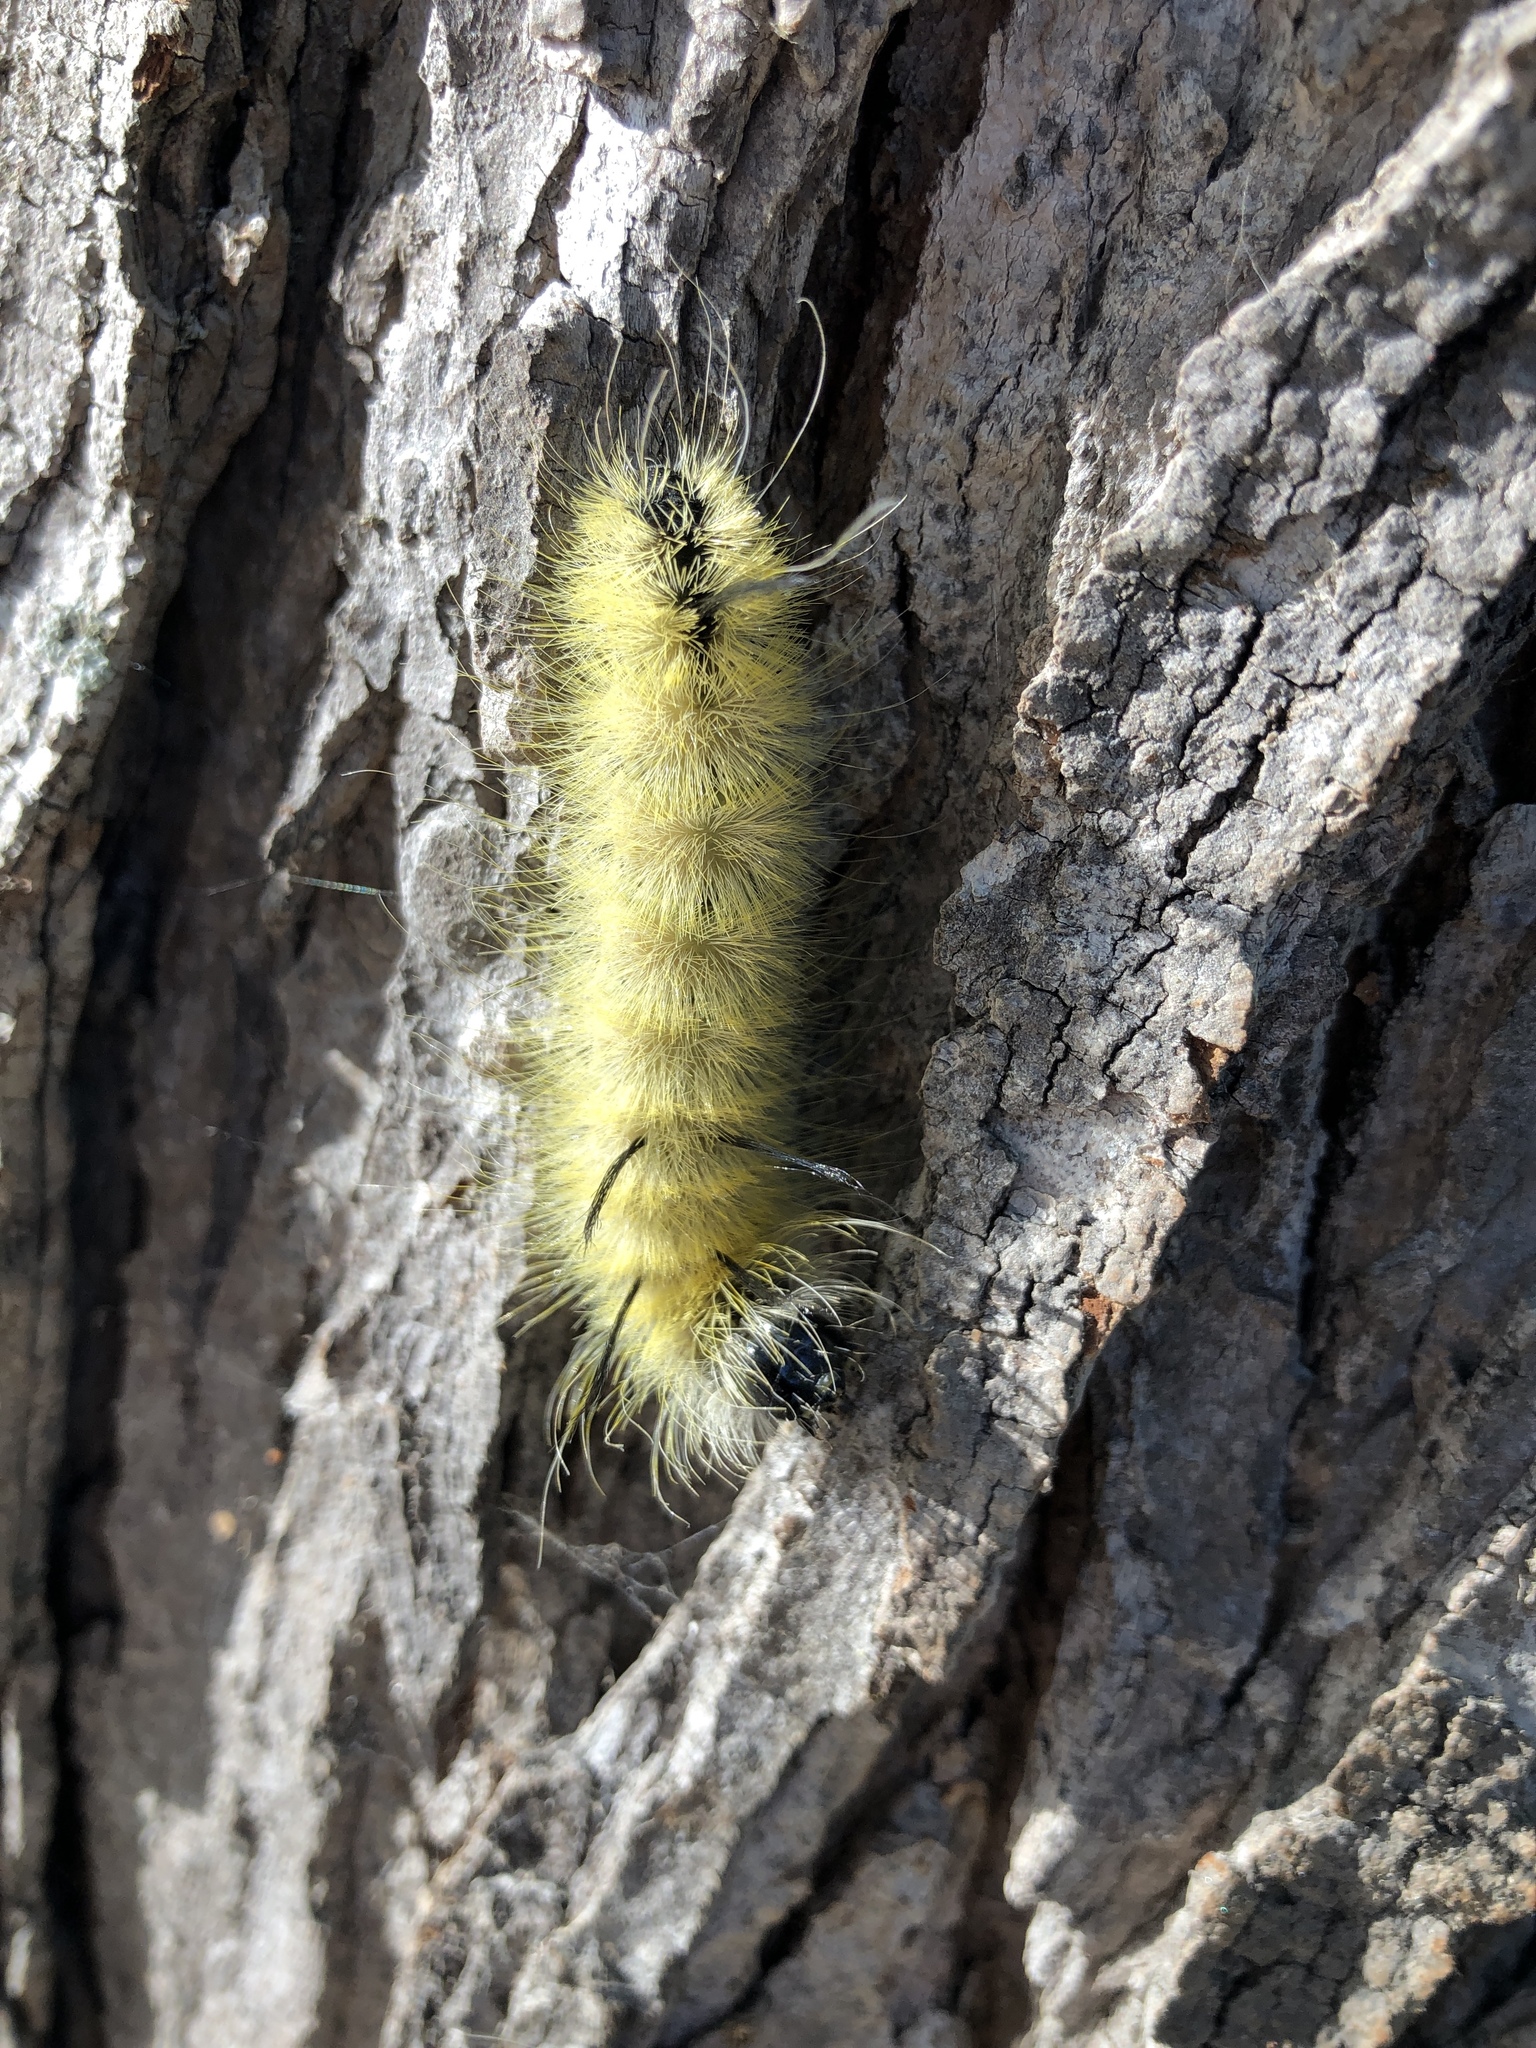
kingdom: Animalia
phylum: Arthropoda
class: Insecta
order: Lepidoptera
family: Noctuidae
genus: Acronicta
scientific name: Acronicta americana
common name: American dagger
